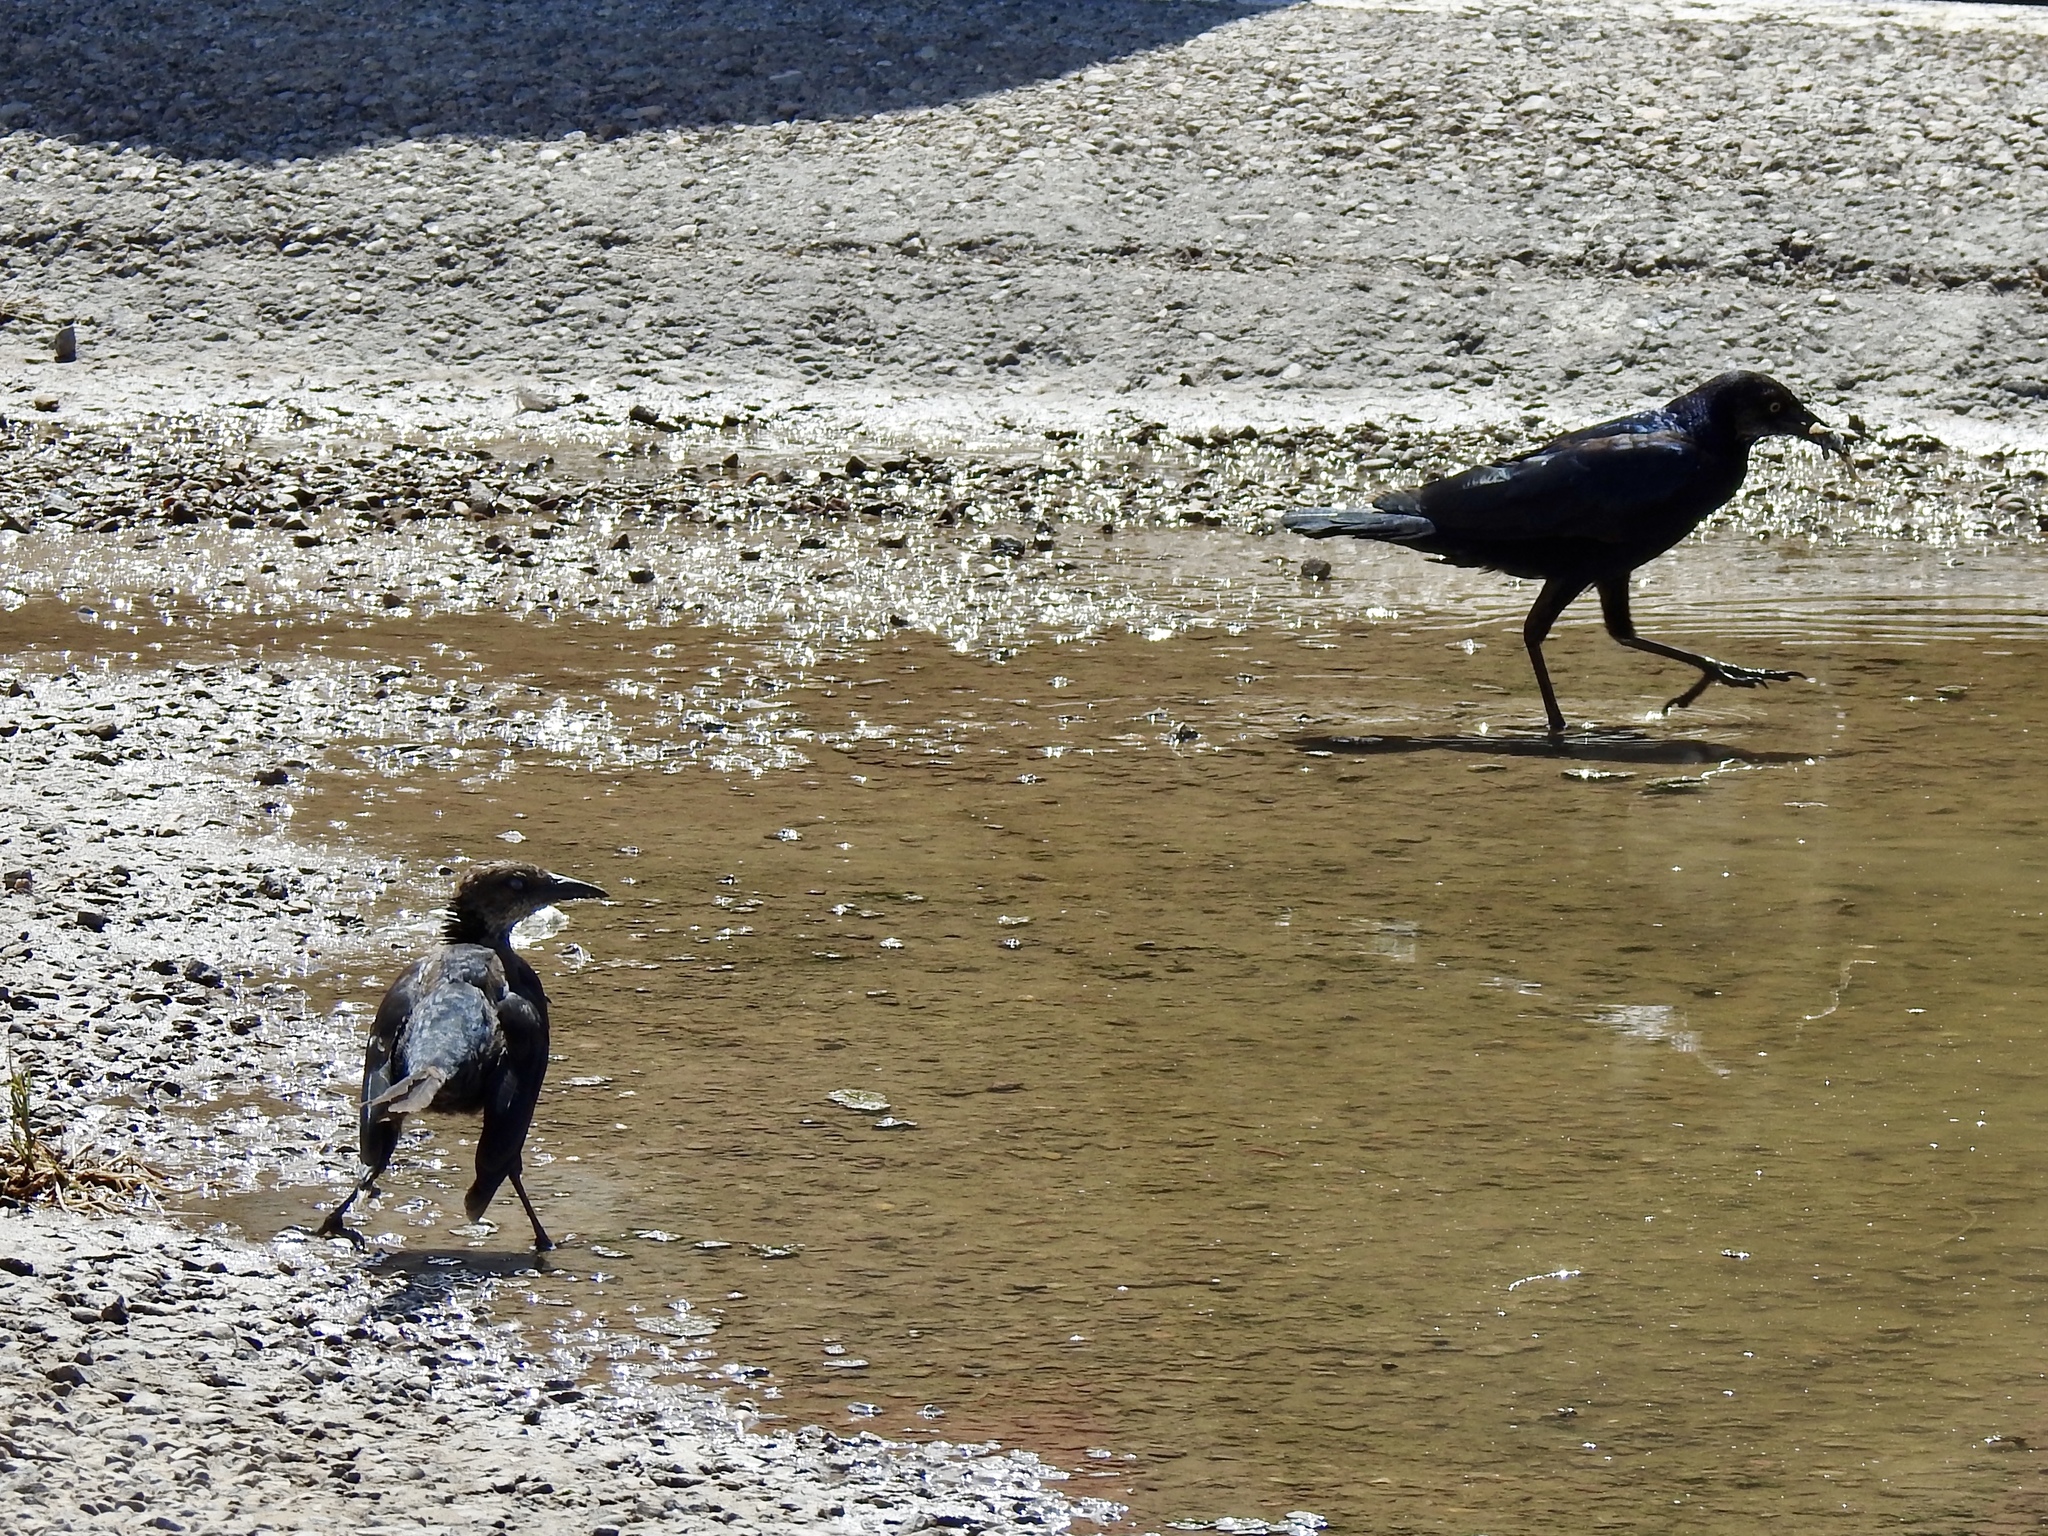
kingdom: Animalia
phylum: Chordata
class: Aves
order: Passeriformes
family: Icteridae
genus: Quiscalus
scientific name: Quiscalus mexicanus
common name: Great-tailed grackle
